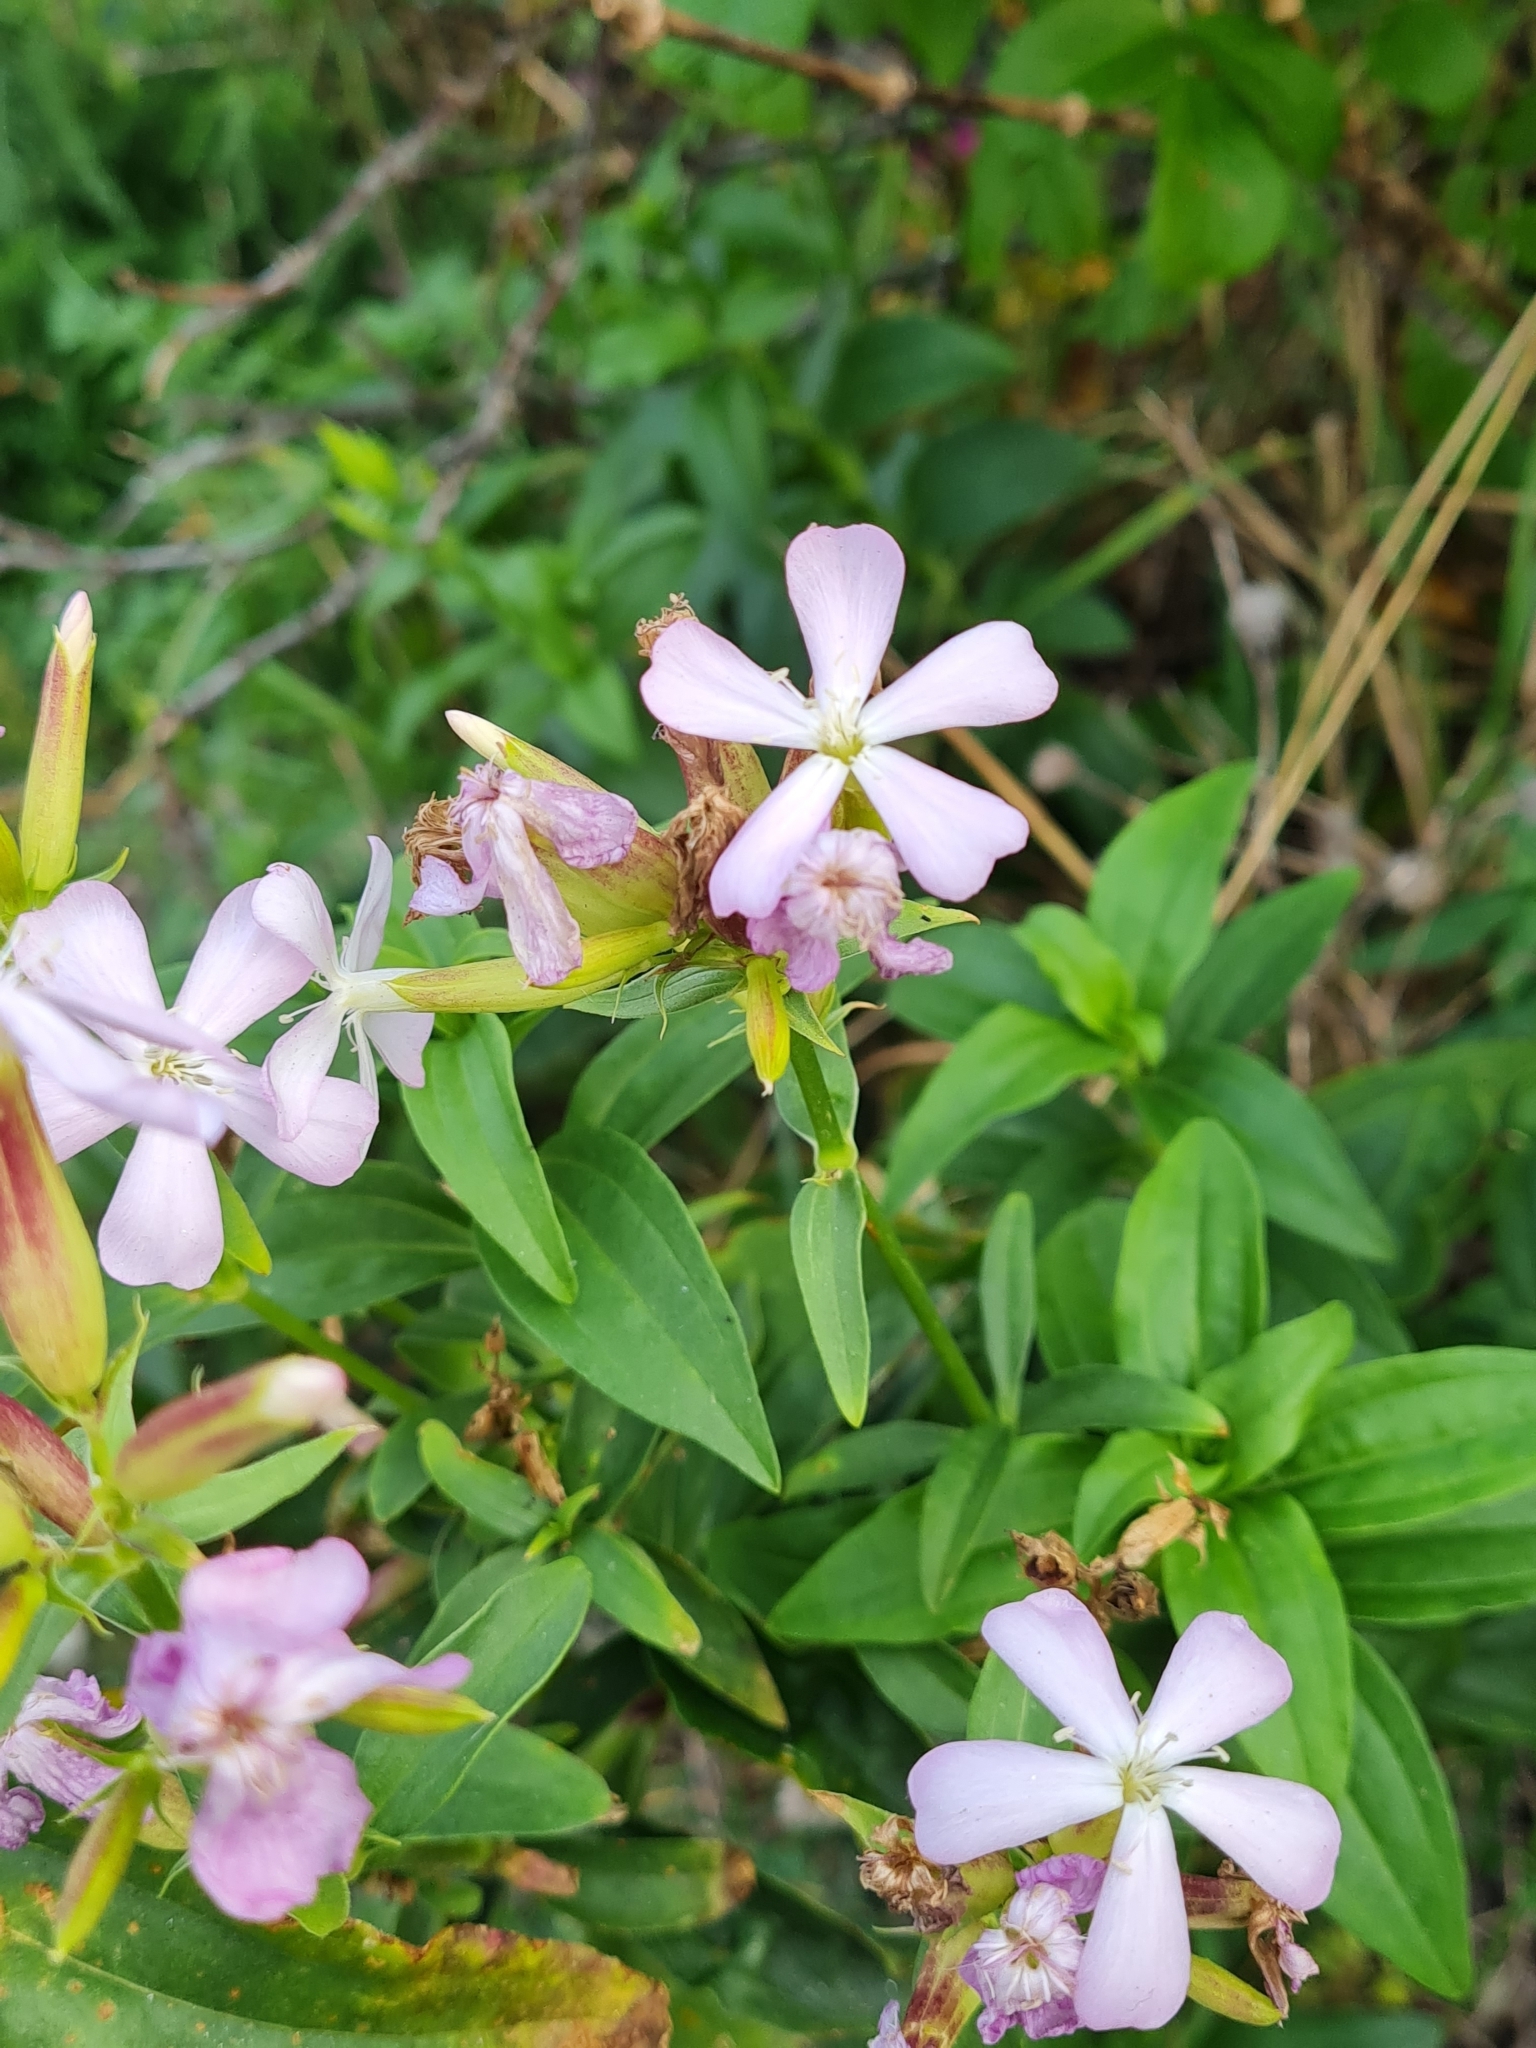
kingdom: Plantae
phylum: Tracheophyta
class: Magnoliopsida
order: Caryophyllales
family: Caryophyllaceae
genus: Saponaria
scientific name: Saponaria officinalis
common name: Soapwort
